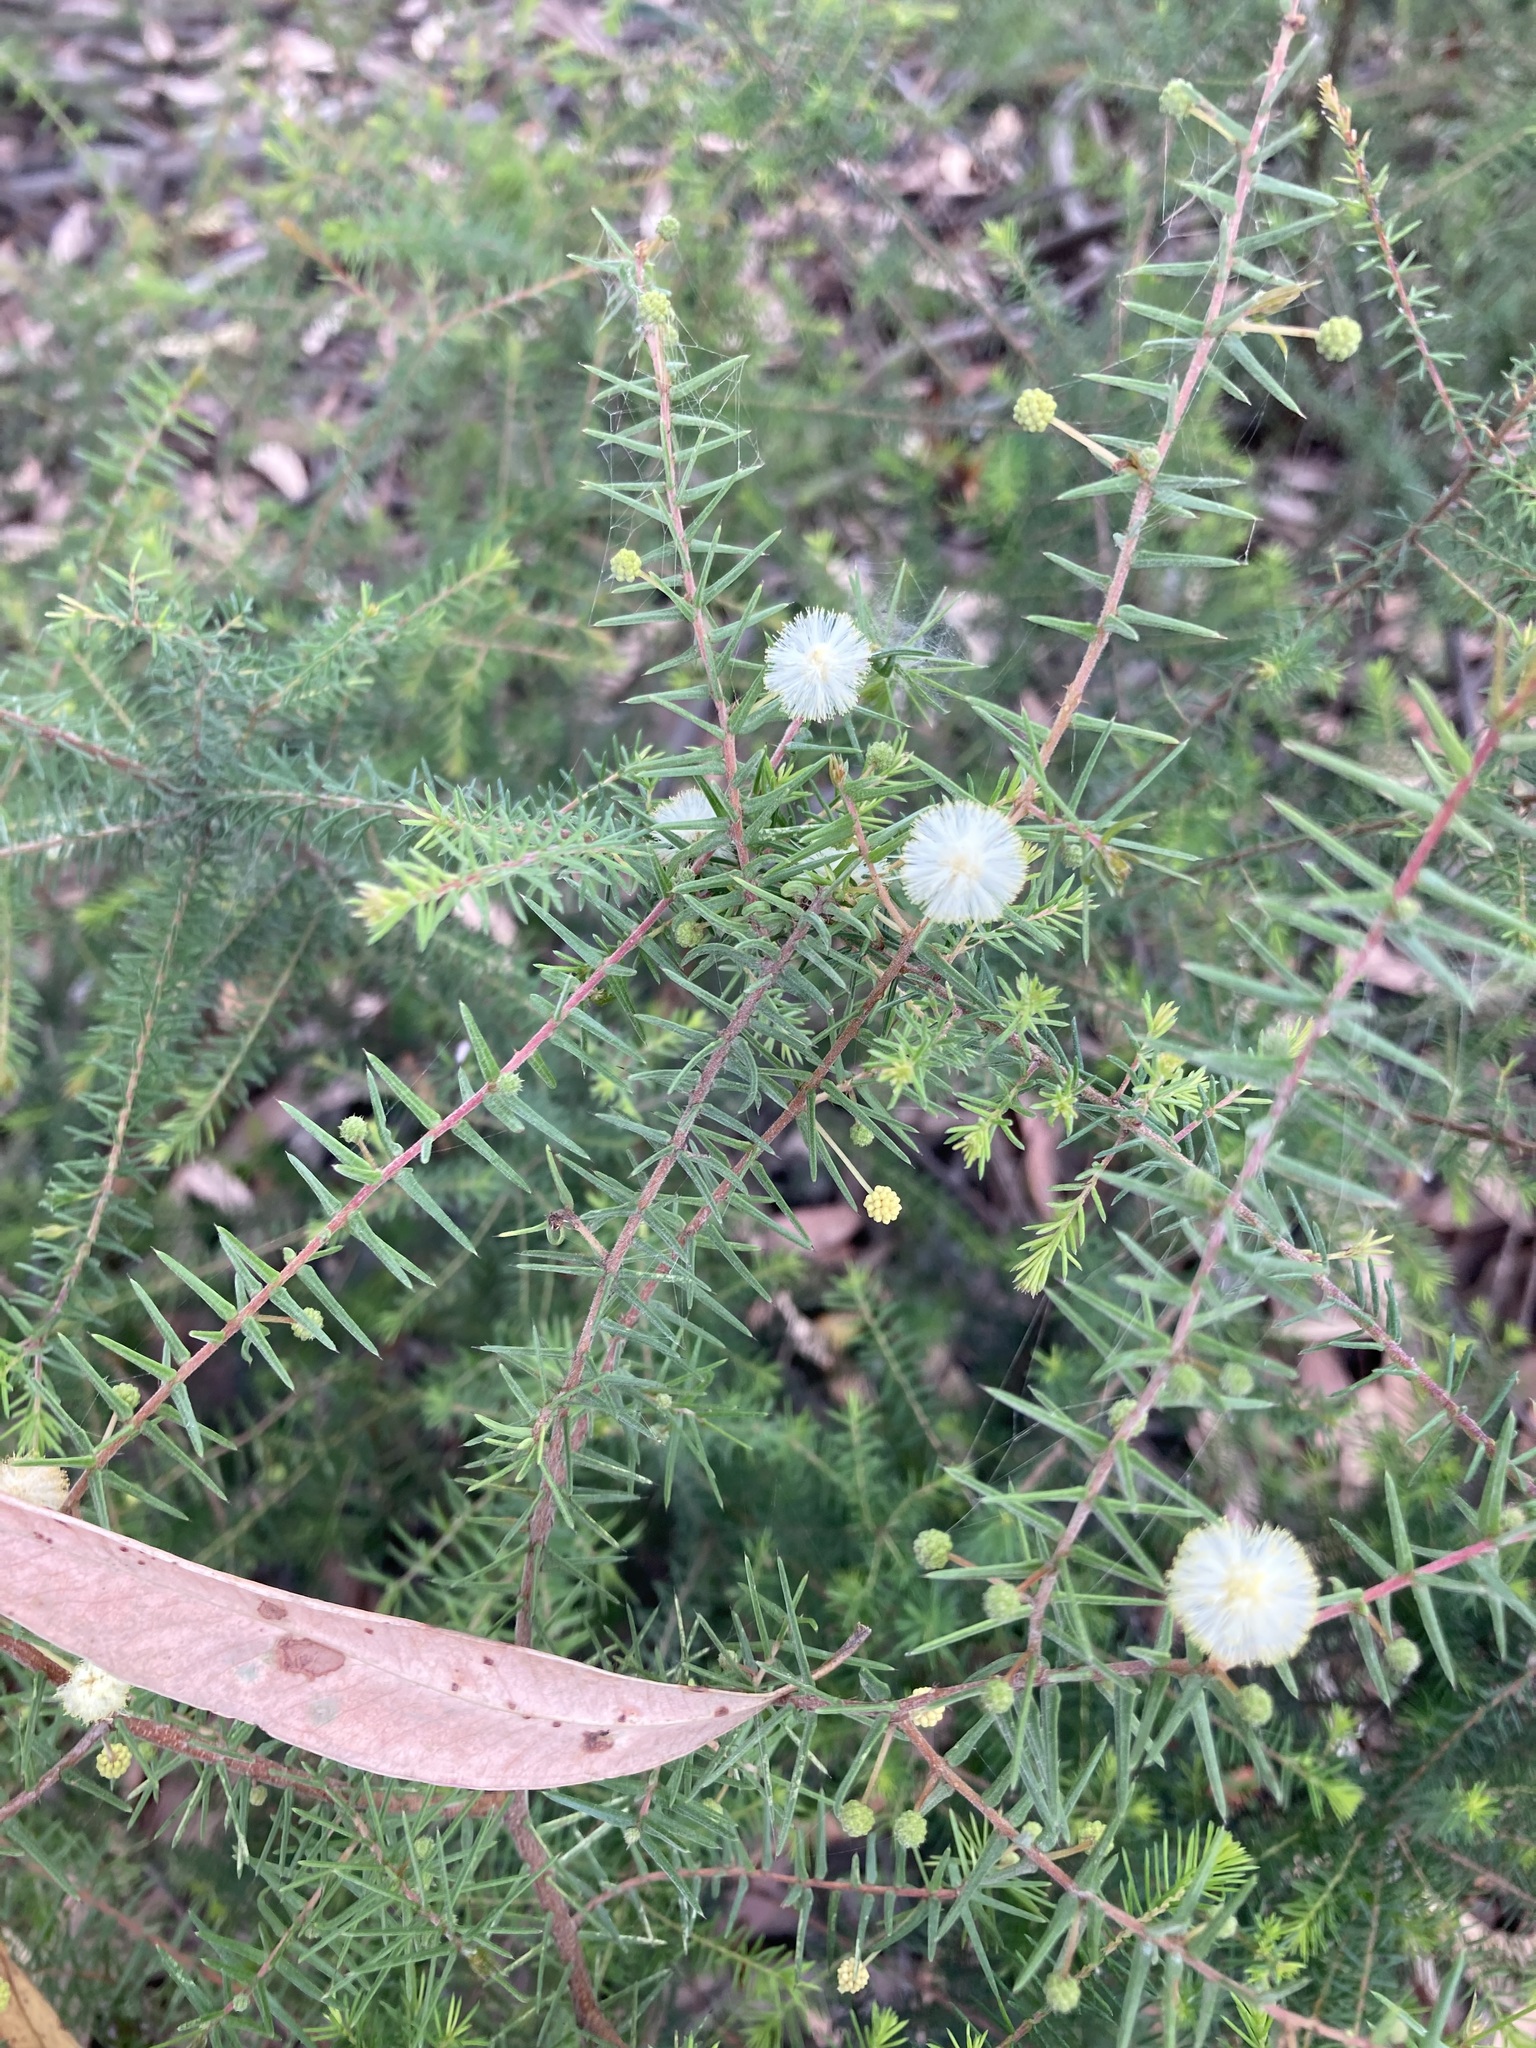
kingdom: Plantae
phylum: Tracheophyta
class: Magnoliopsida
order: Fabales
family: Fabaceae
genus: Acacia
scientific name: Acacia ulicifolia
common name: Juniper wattle
